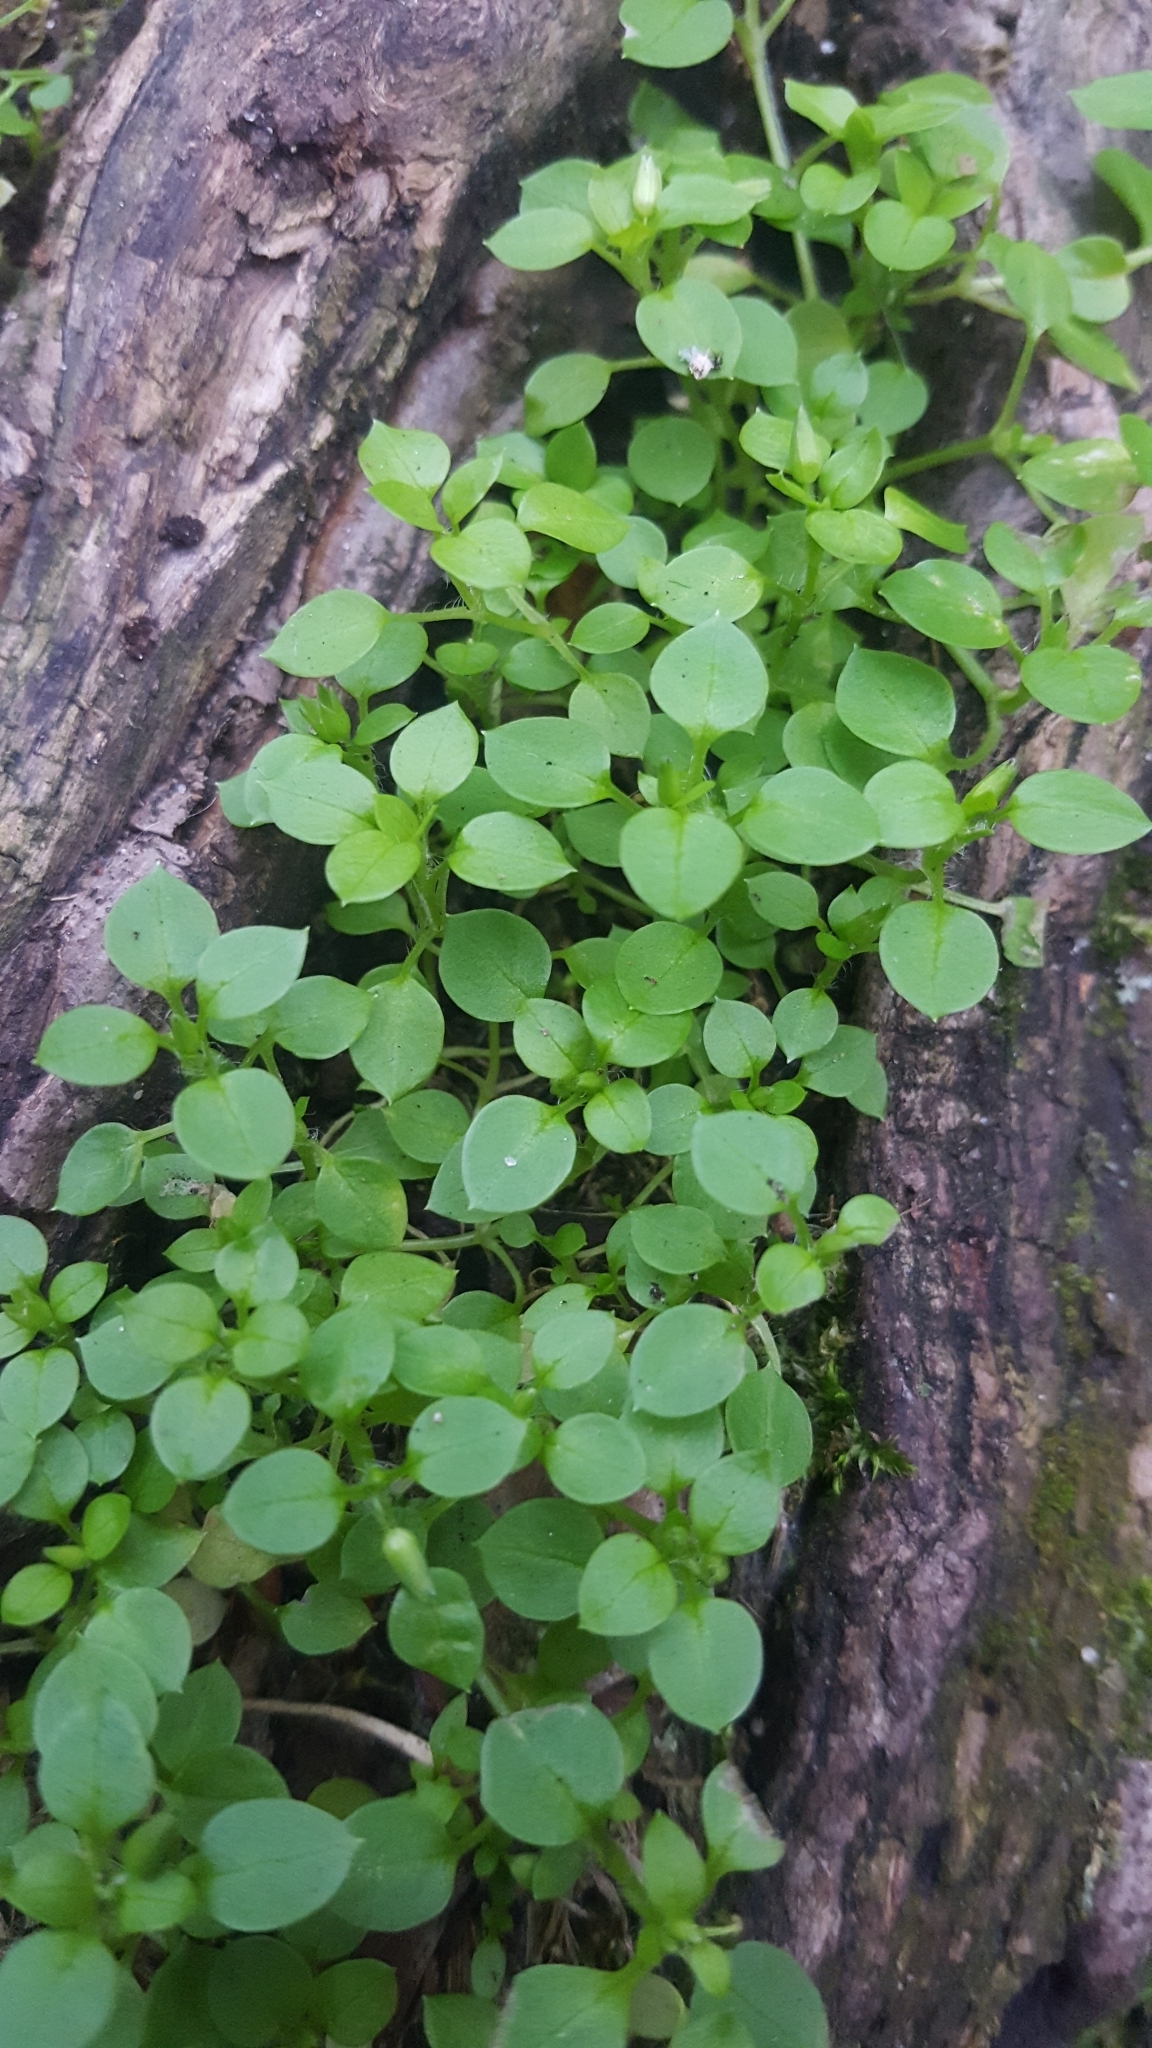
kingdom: Plantae
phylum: Tracheophyta
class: Magnoliopsida
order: Caryophyllales
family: Caryophyllaceae
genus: Stellaria
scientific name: Stellaria media
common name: Common chickweed
